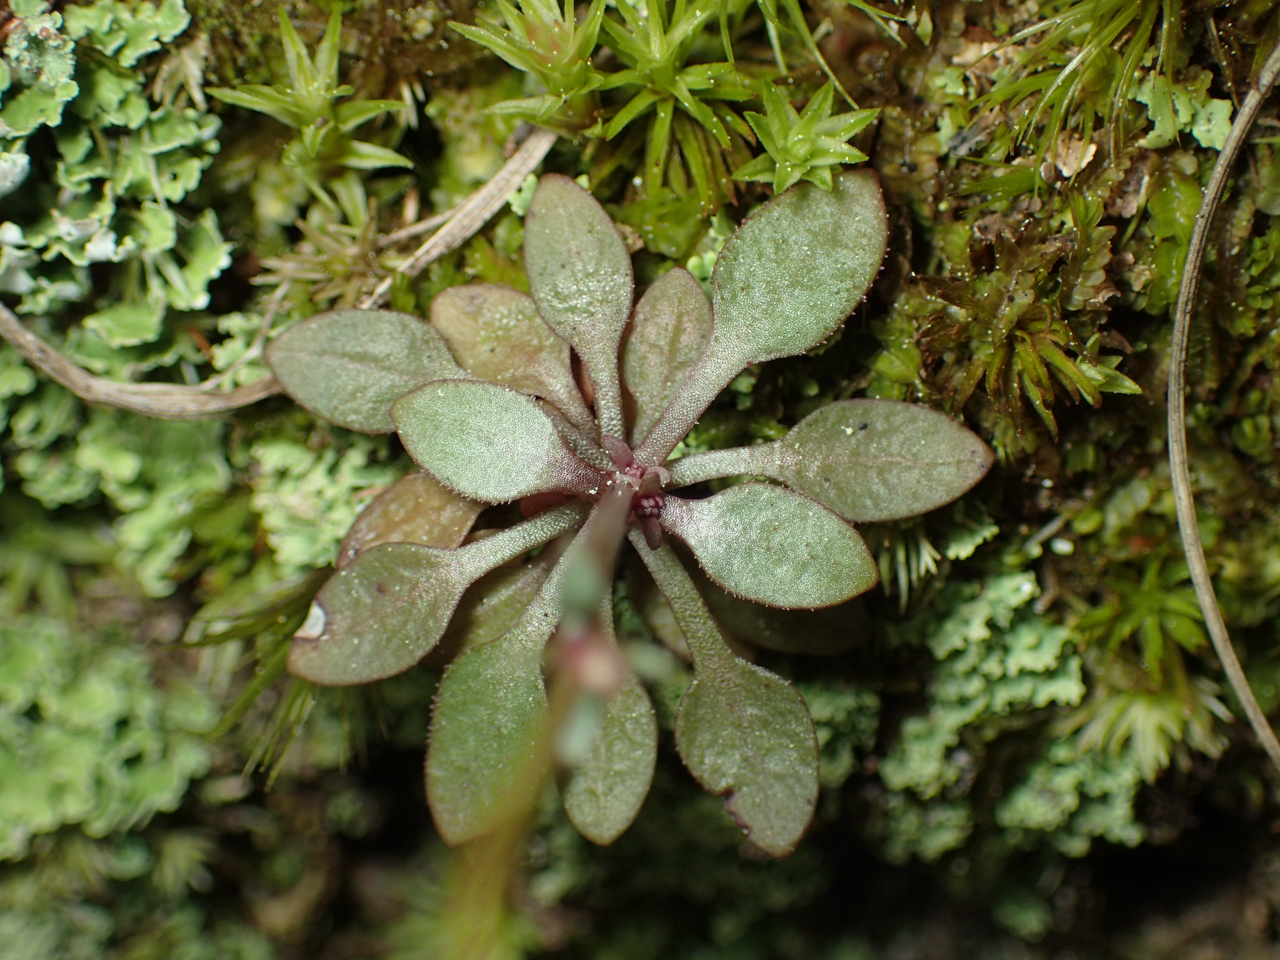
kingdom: Plantae
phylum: Tracheophyta
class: Magnoliopsida
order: Gentianales
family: Rubiaceae
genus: Houstonia
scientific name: Houstonia caerulea
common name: Bluets
